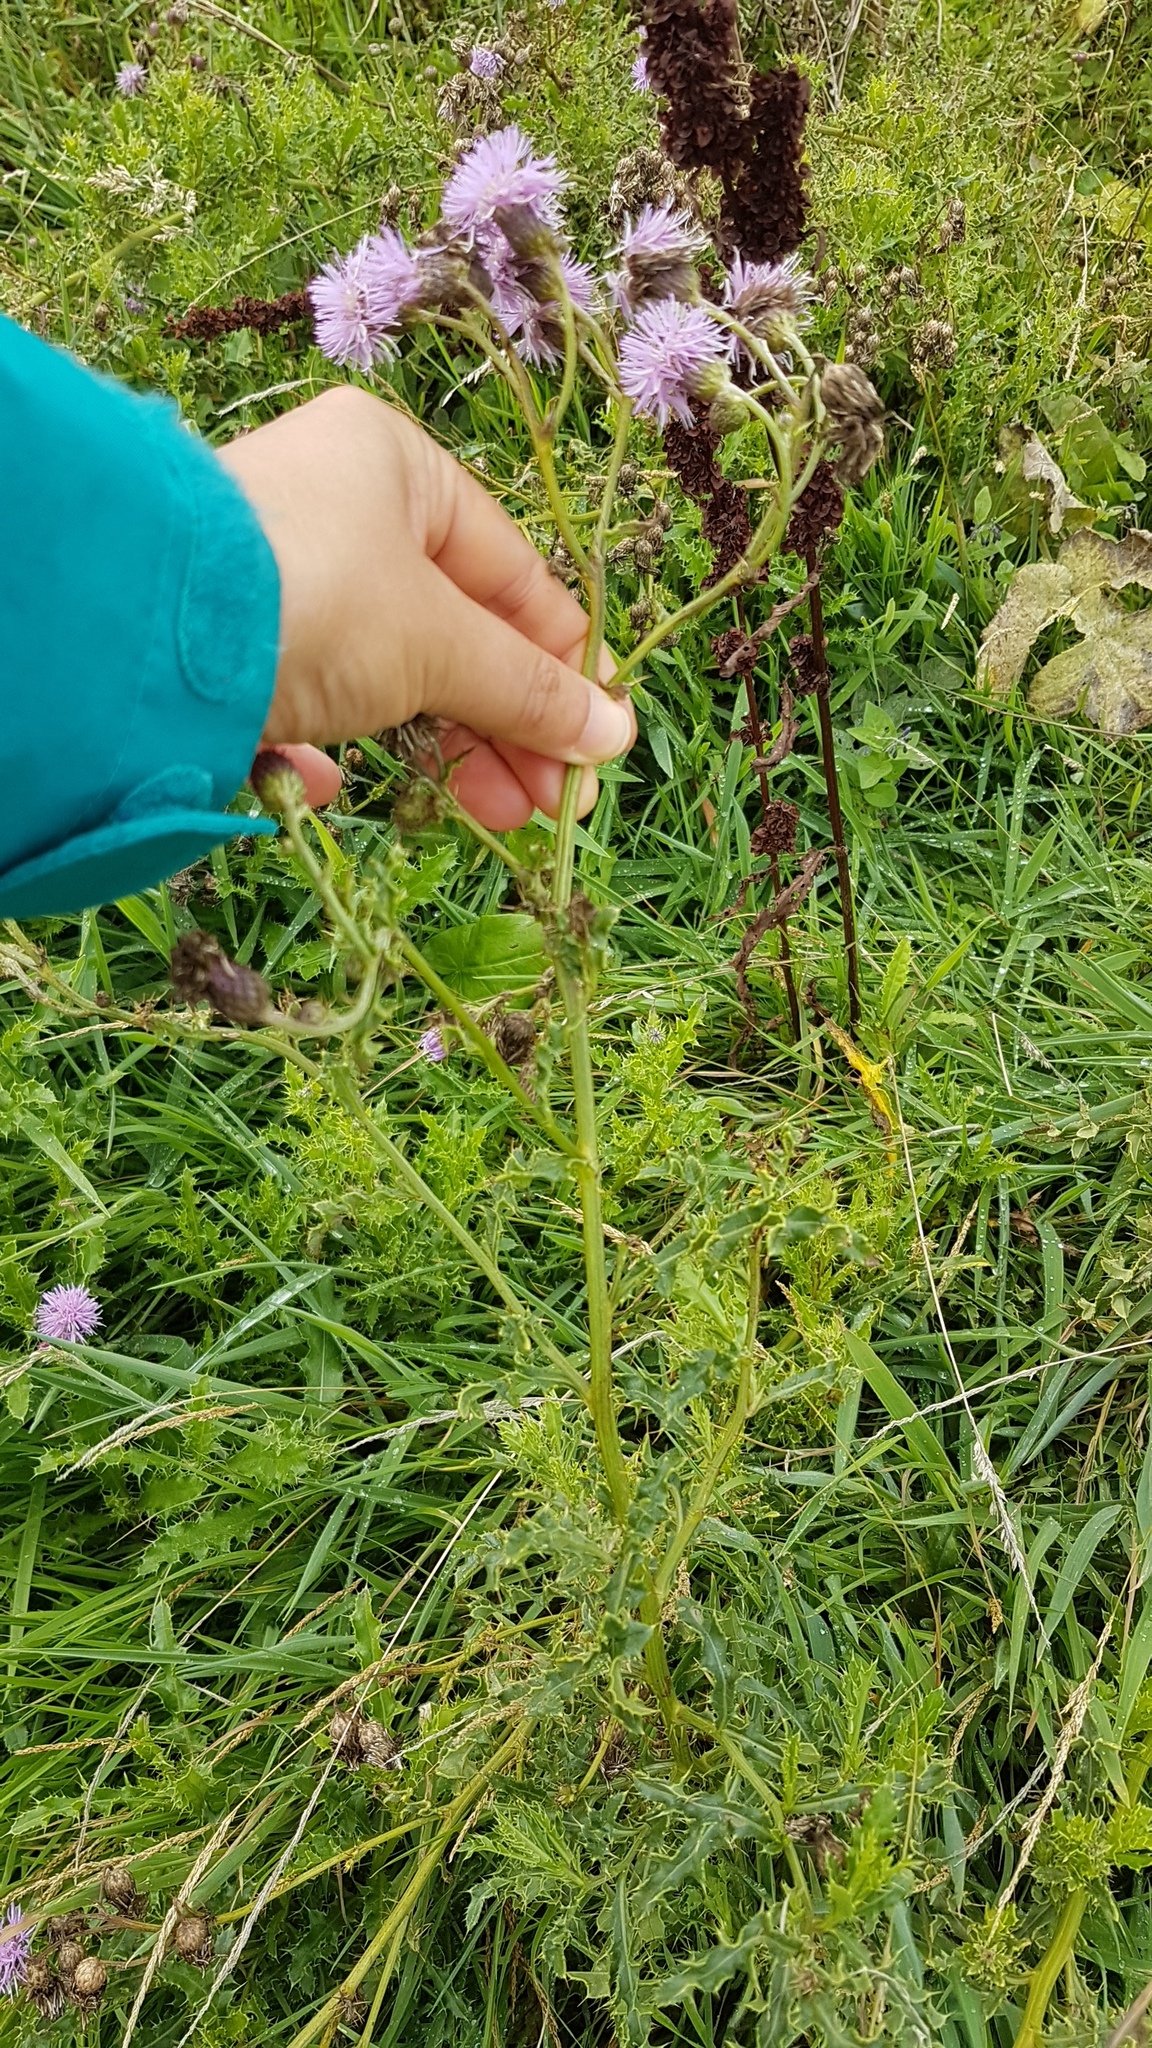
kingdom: Plantae
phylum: Tracheophyta
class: Magnoliopsida
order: Asterales
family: Asteraceae
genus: Cirsium
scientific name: Cirsium arvense
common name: Creeping thistle
